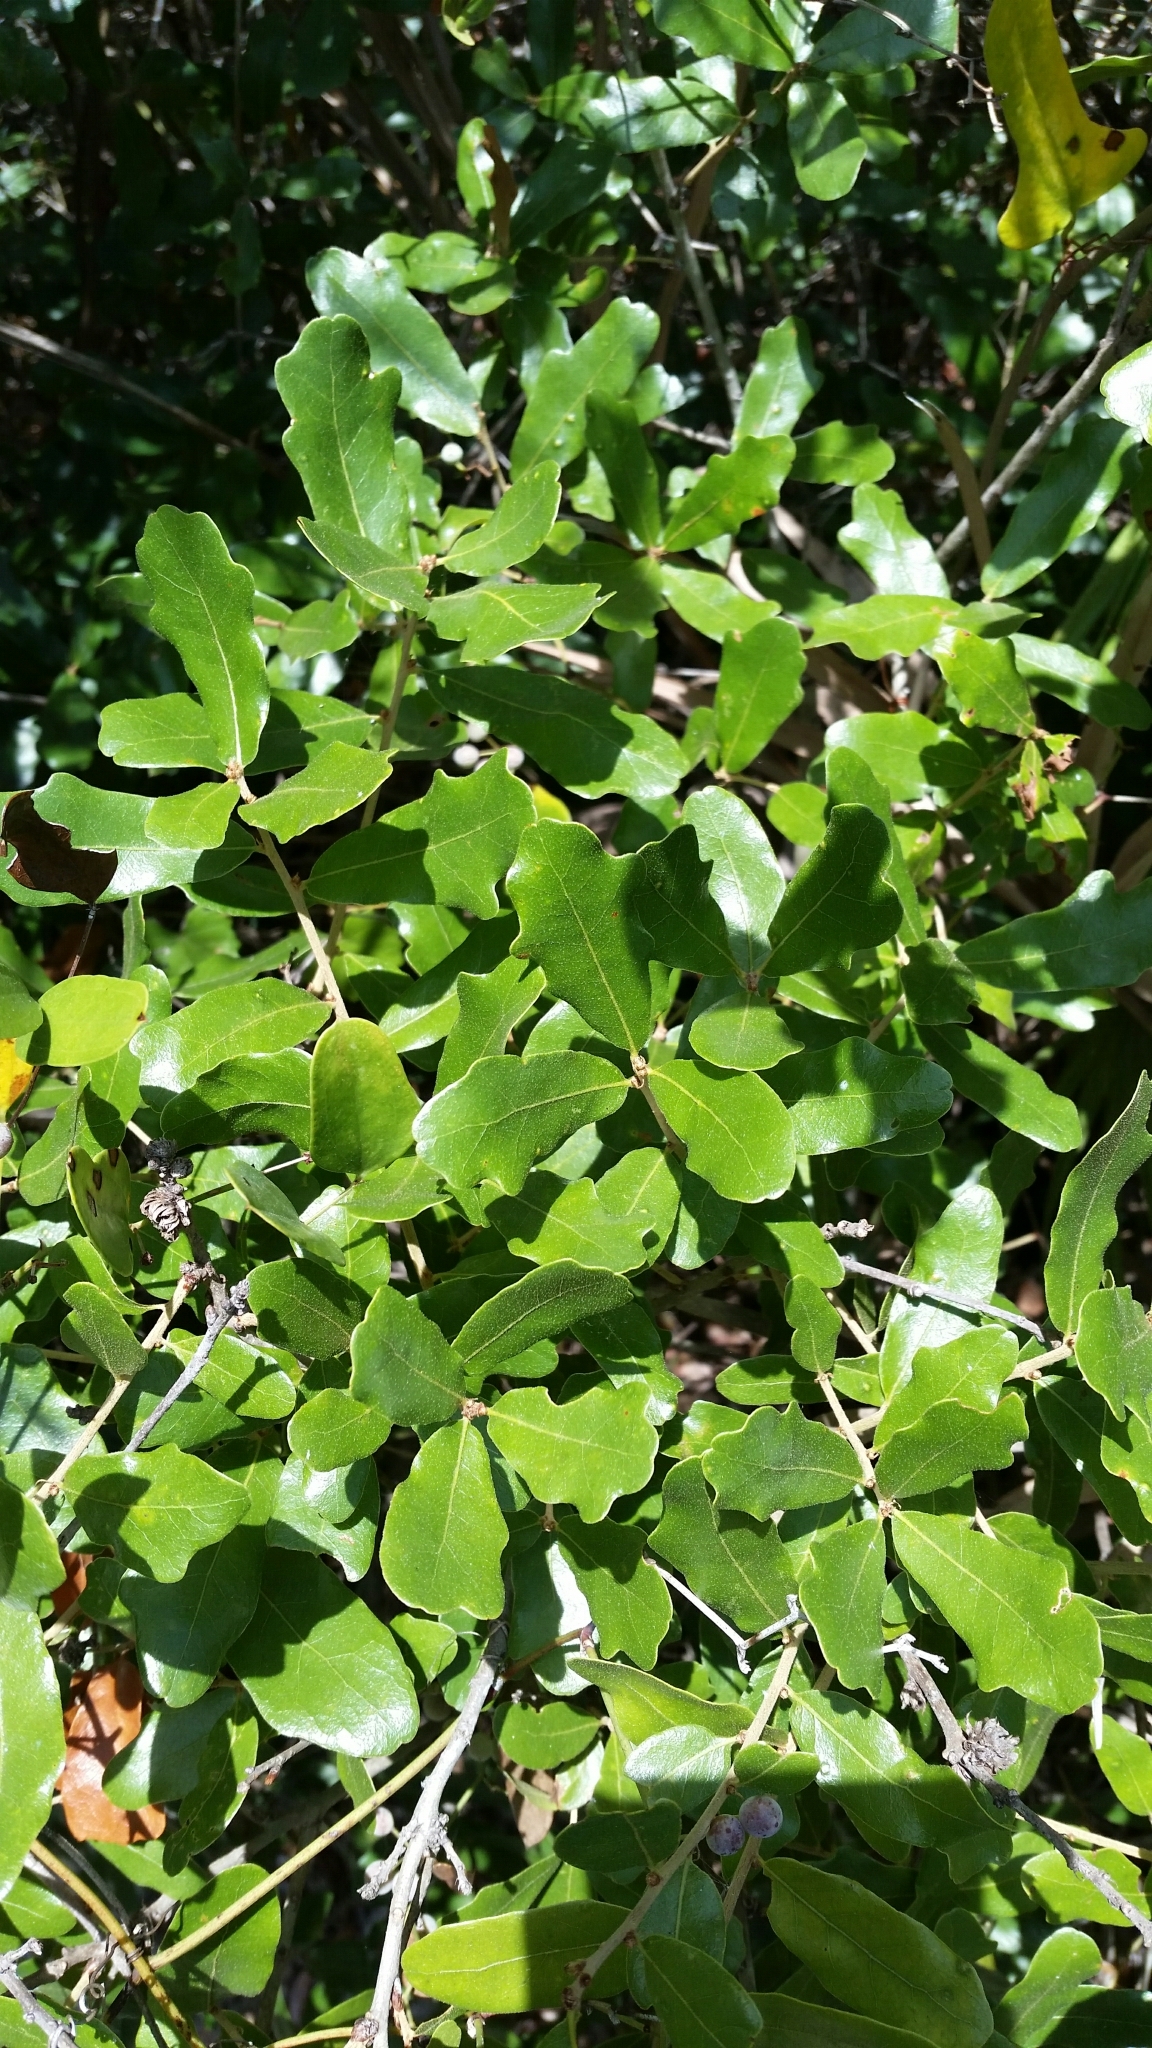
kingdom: Plantae
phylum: Tracheophyta
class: Magnoliopsida
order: Fagales
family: Fagaceae
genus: Quercus
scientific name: Quercus chapmanii
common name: Chapman oak
